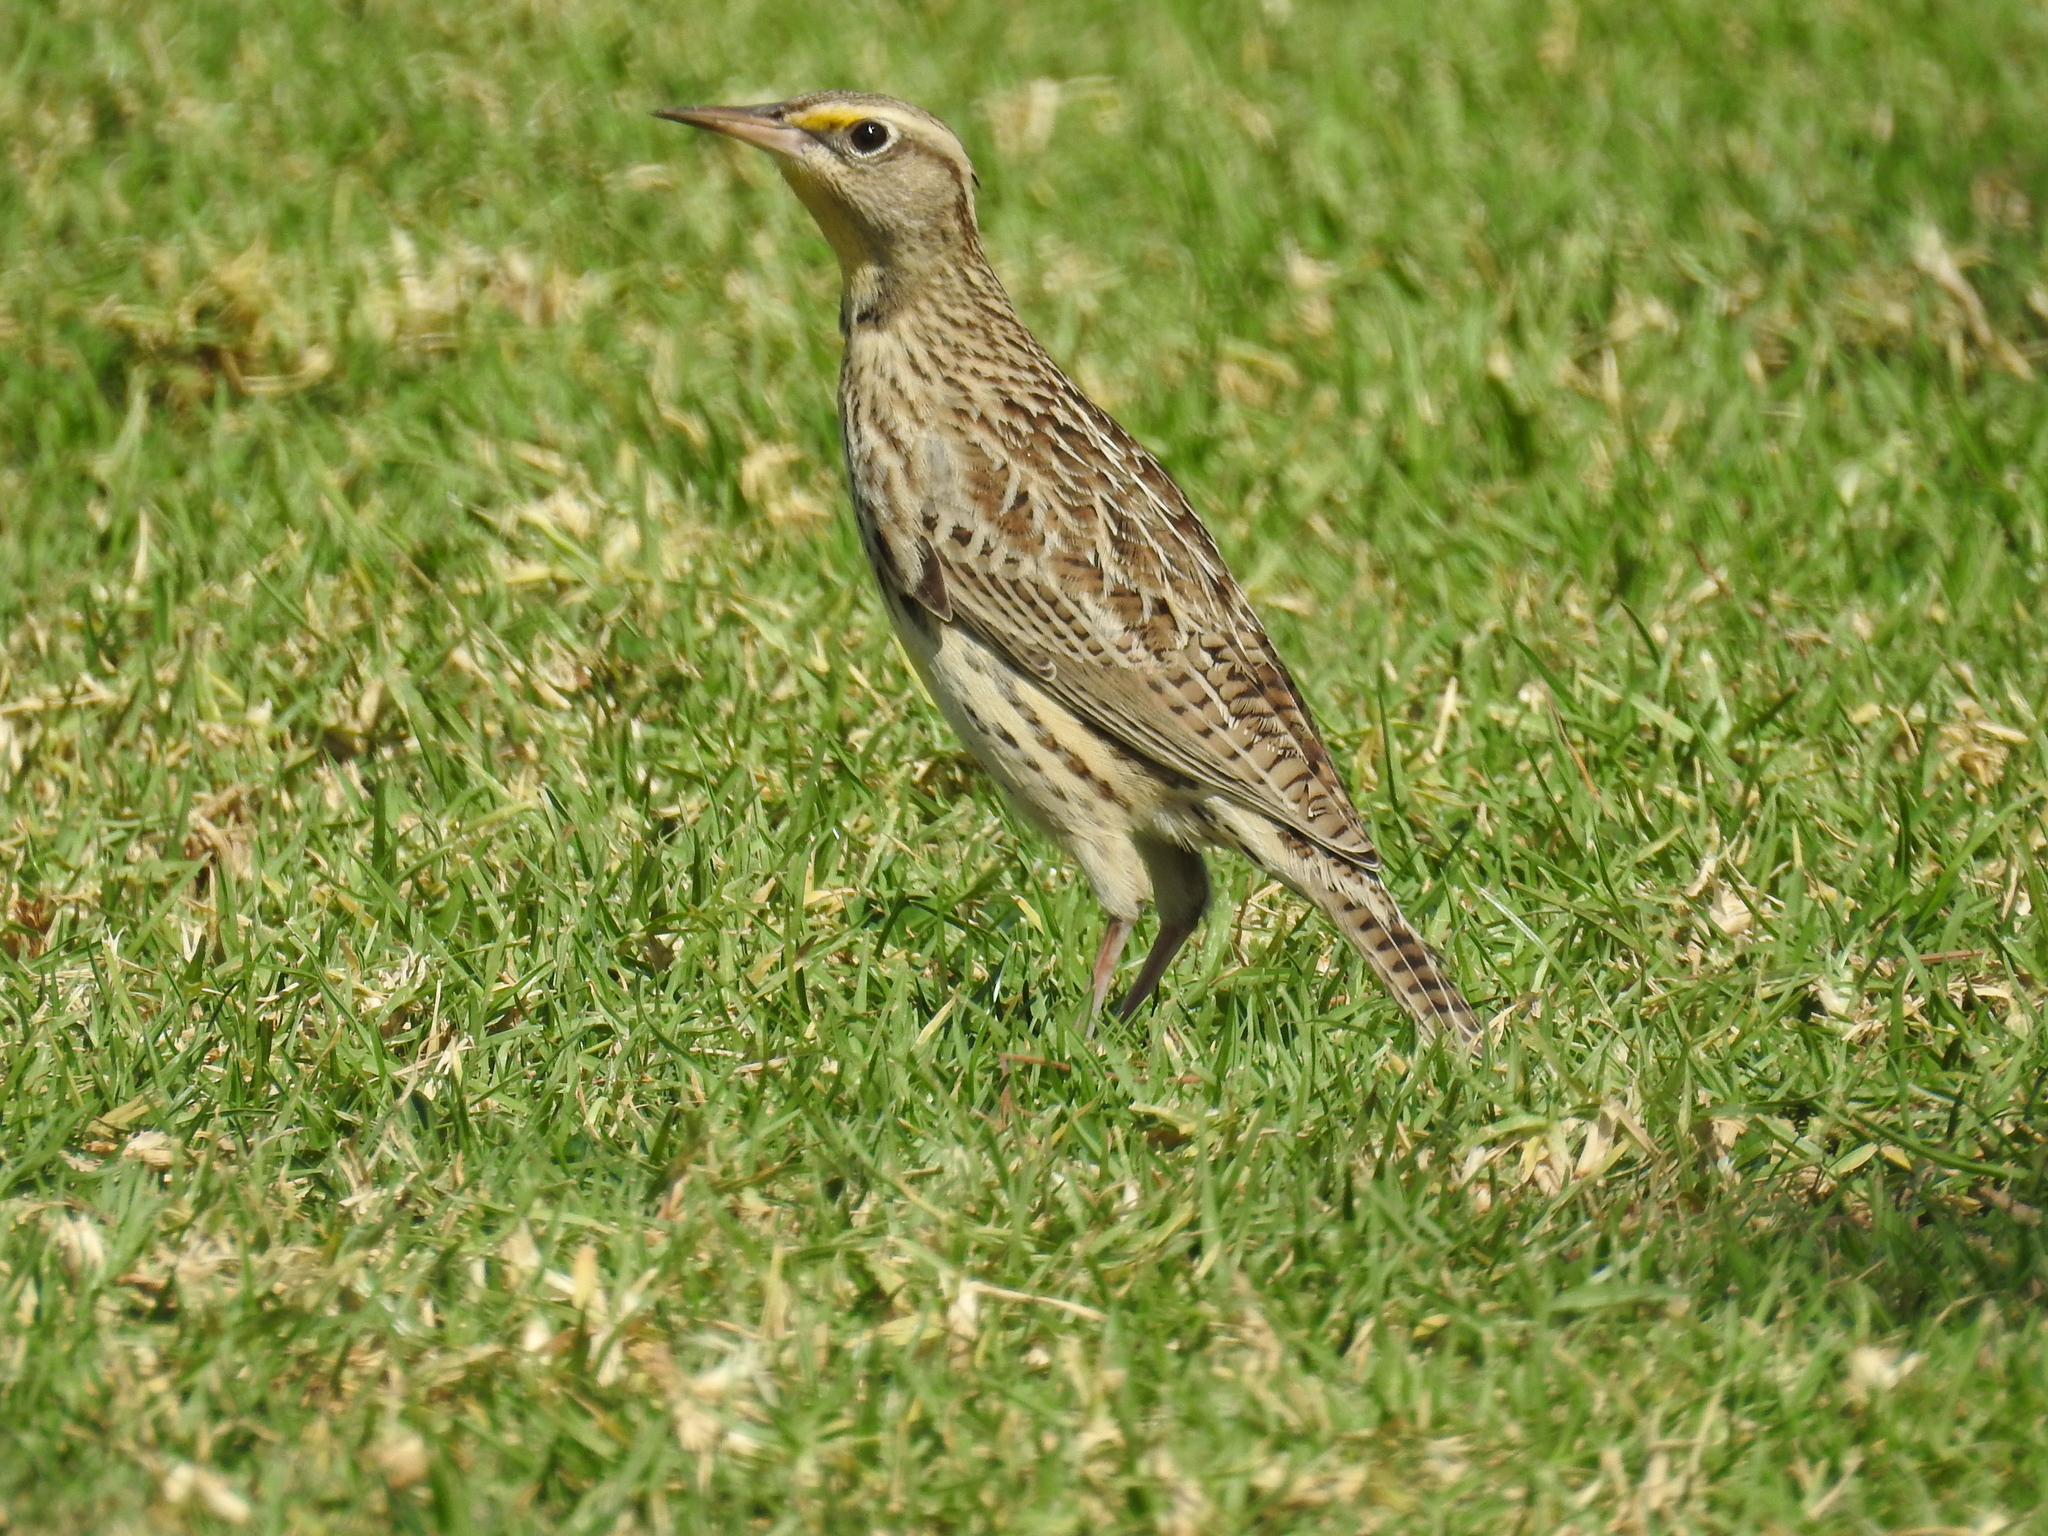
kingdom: Animalia
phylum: Chordata
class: Aves
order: Passeriformes
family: Icteridae
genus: Sturnella
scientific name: Sturnella neglecta
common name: Western meadowlark
